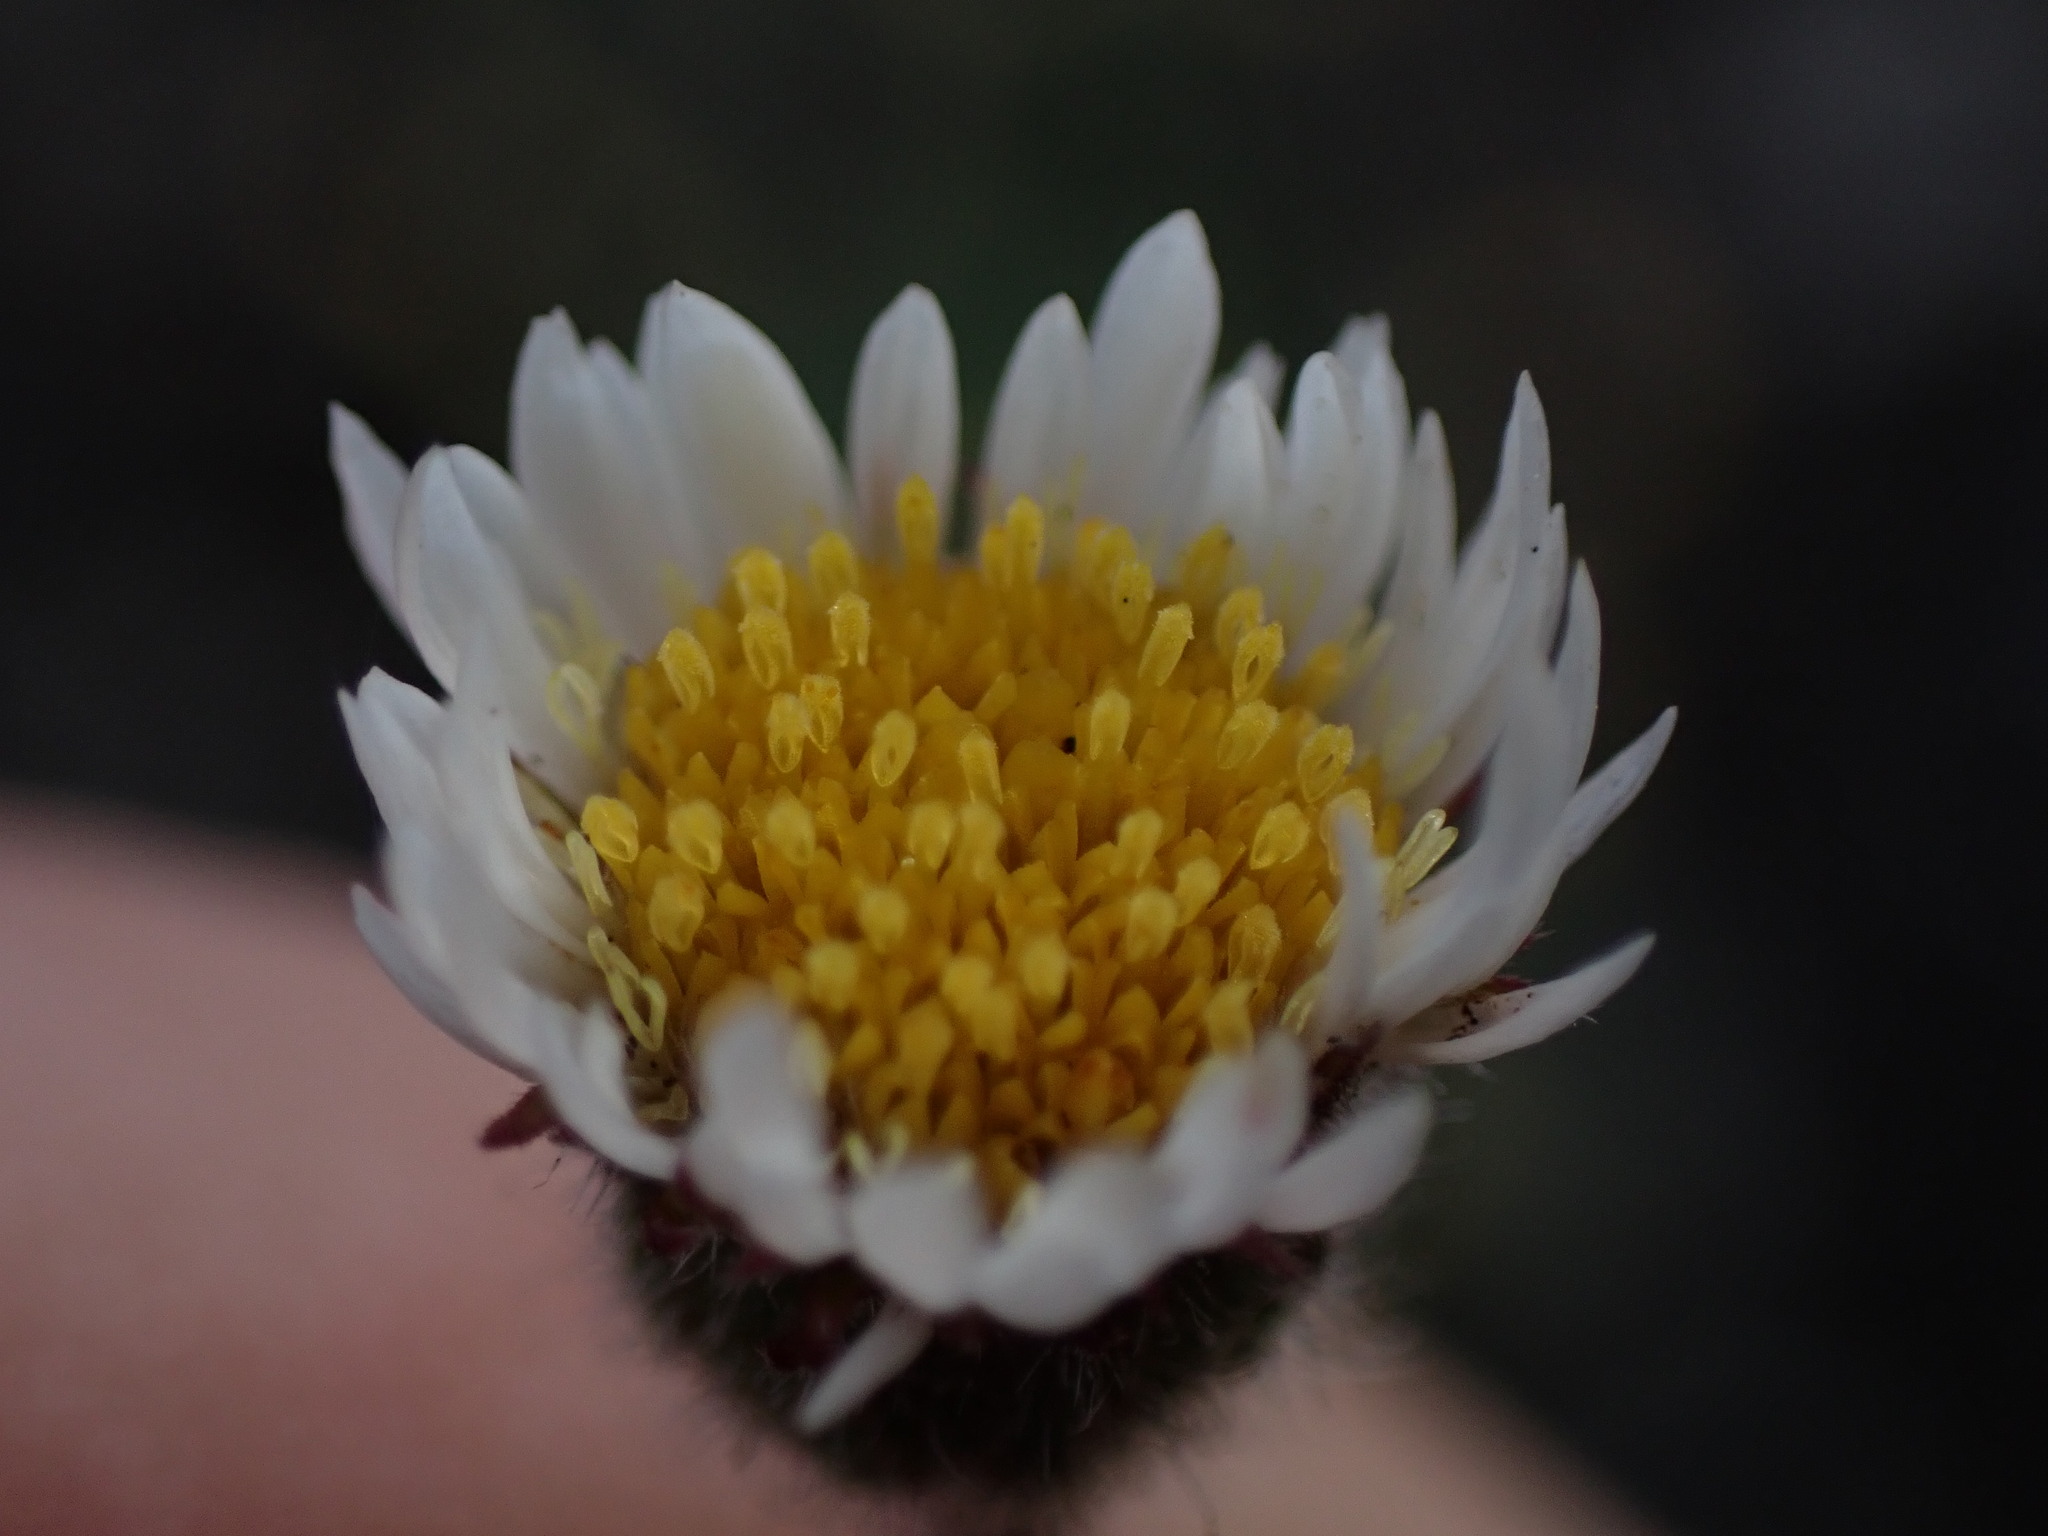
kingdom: Plantae
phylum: Tracheophyta
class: Magnoliopsida
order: Asterales
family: Asteraceae
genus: Erigeron
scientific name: Erigeron compositus
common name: Dwarf mountain fleabane
